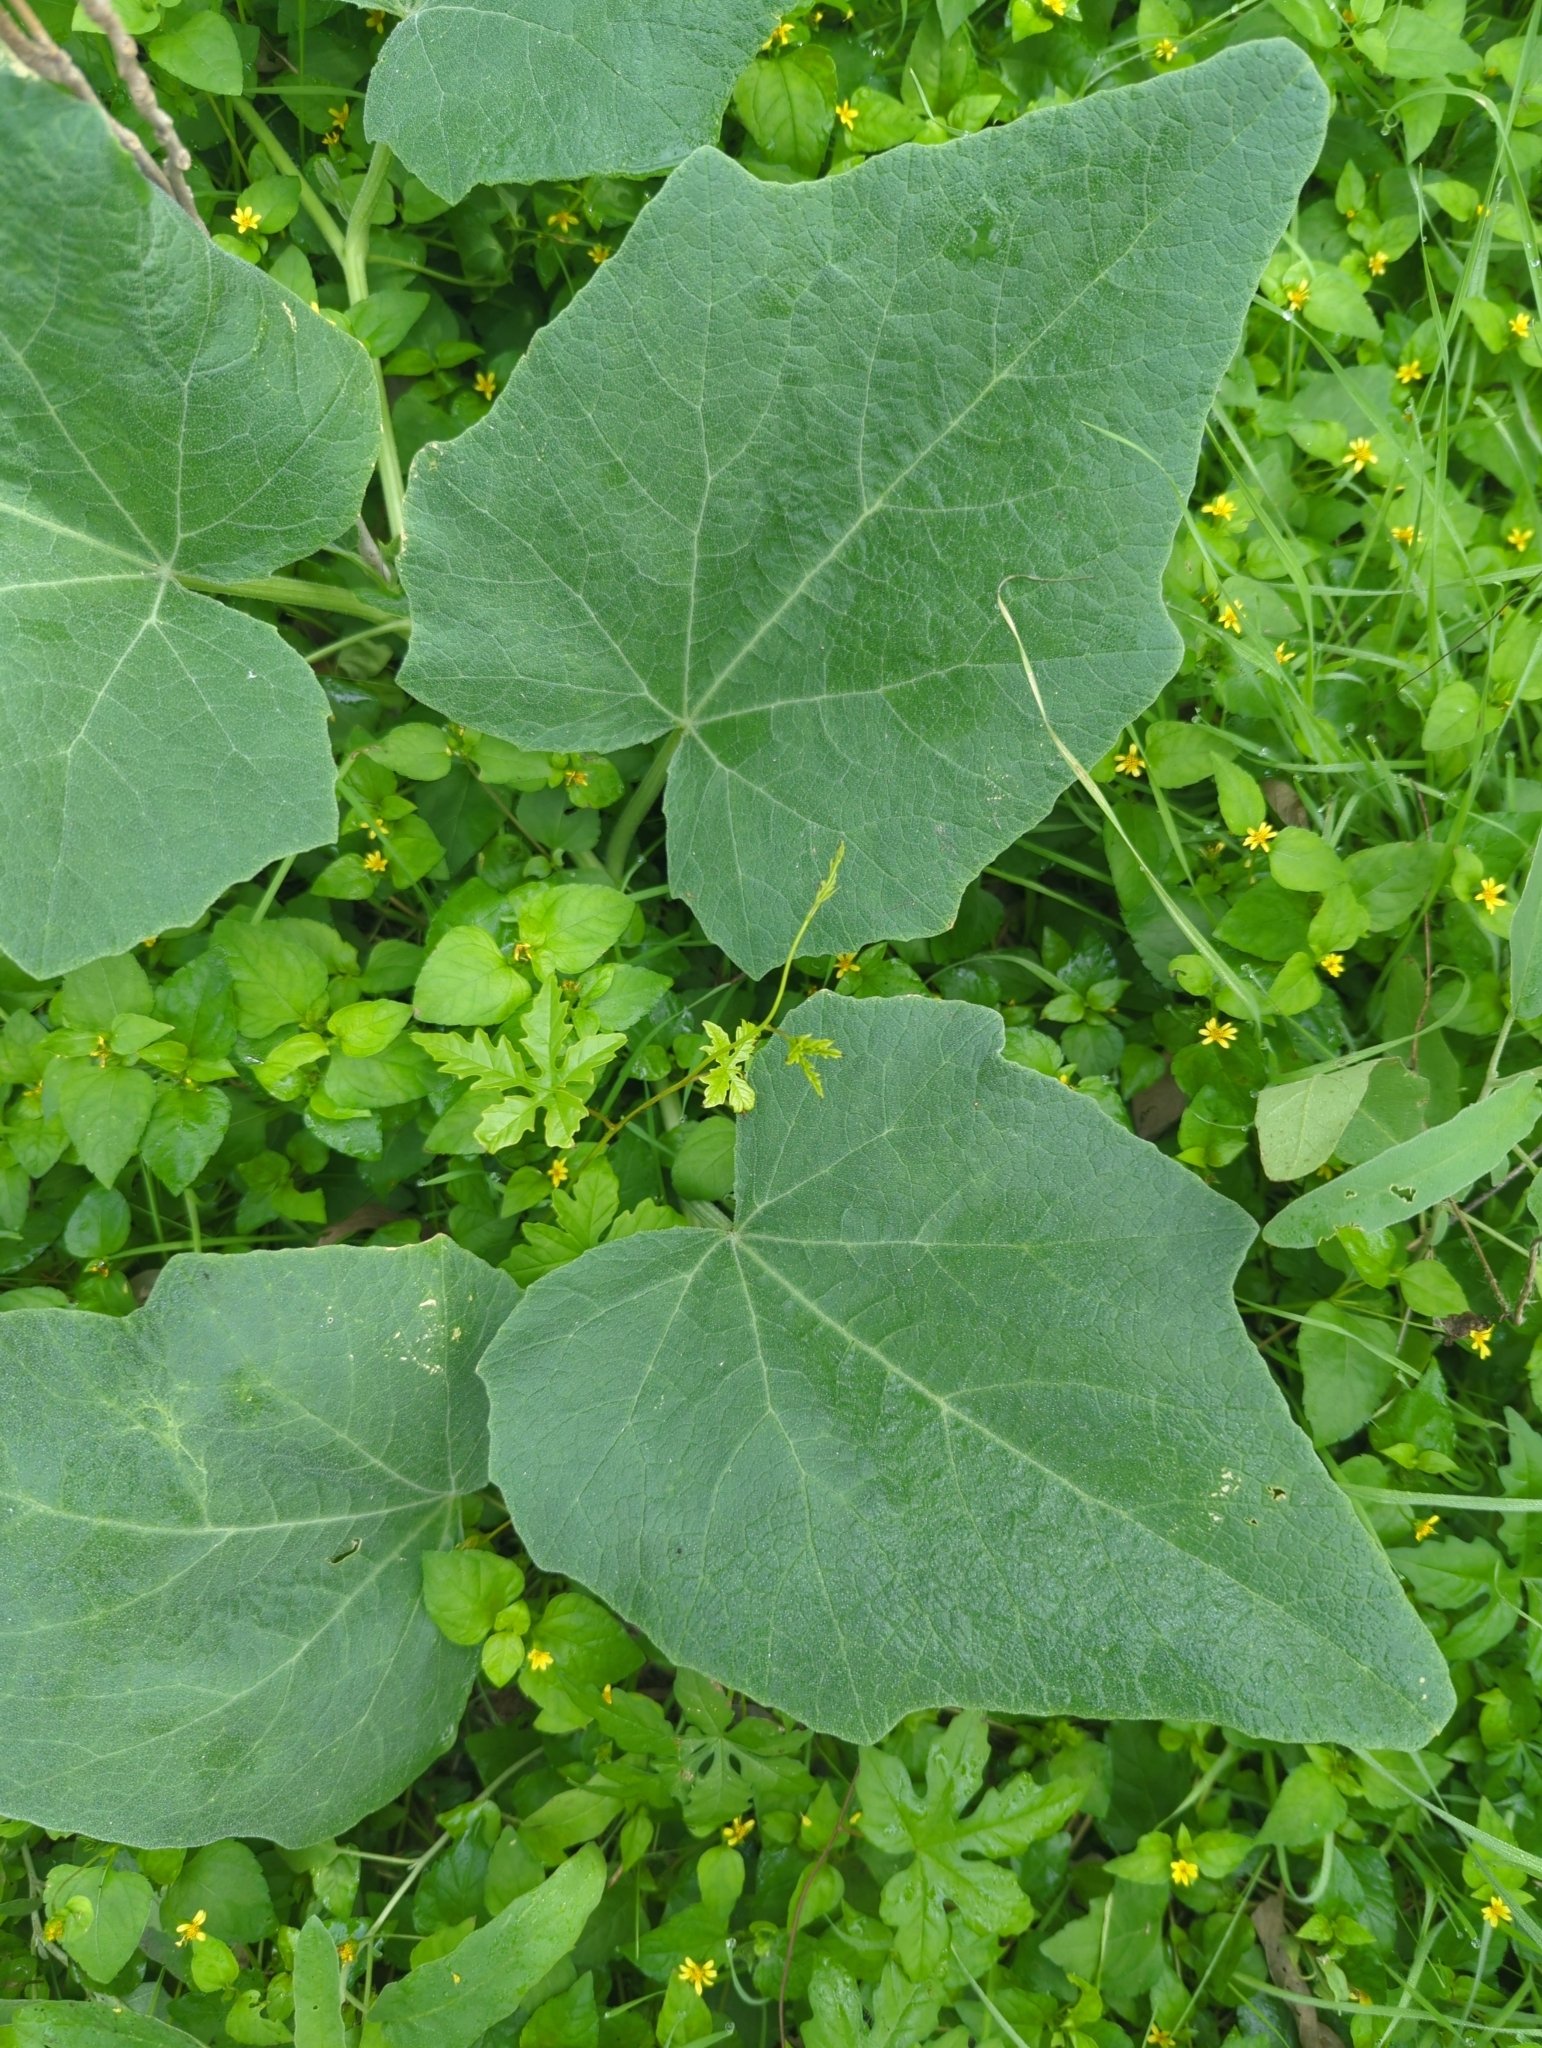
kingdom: Plantae
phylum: Tracheophyta
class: Magnoliopsida
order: Cucurbitales
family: Cucurbitaceae
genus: Cucurbita
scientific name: Cucurbita foetidissima
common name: Buffalo gourd
